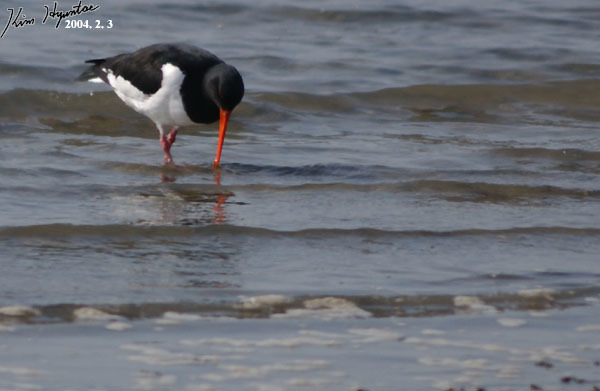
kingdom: Animalia
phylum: Chordata
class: Aves
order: Charadriiformes
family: Haematopodidae
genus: Haematopus
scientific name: Haematopus ostralegus
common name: Eurasian oystercatcher
